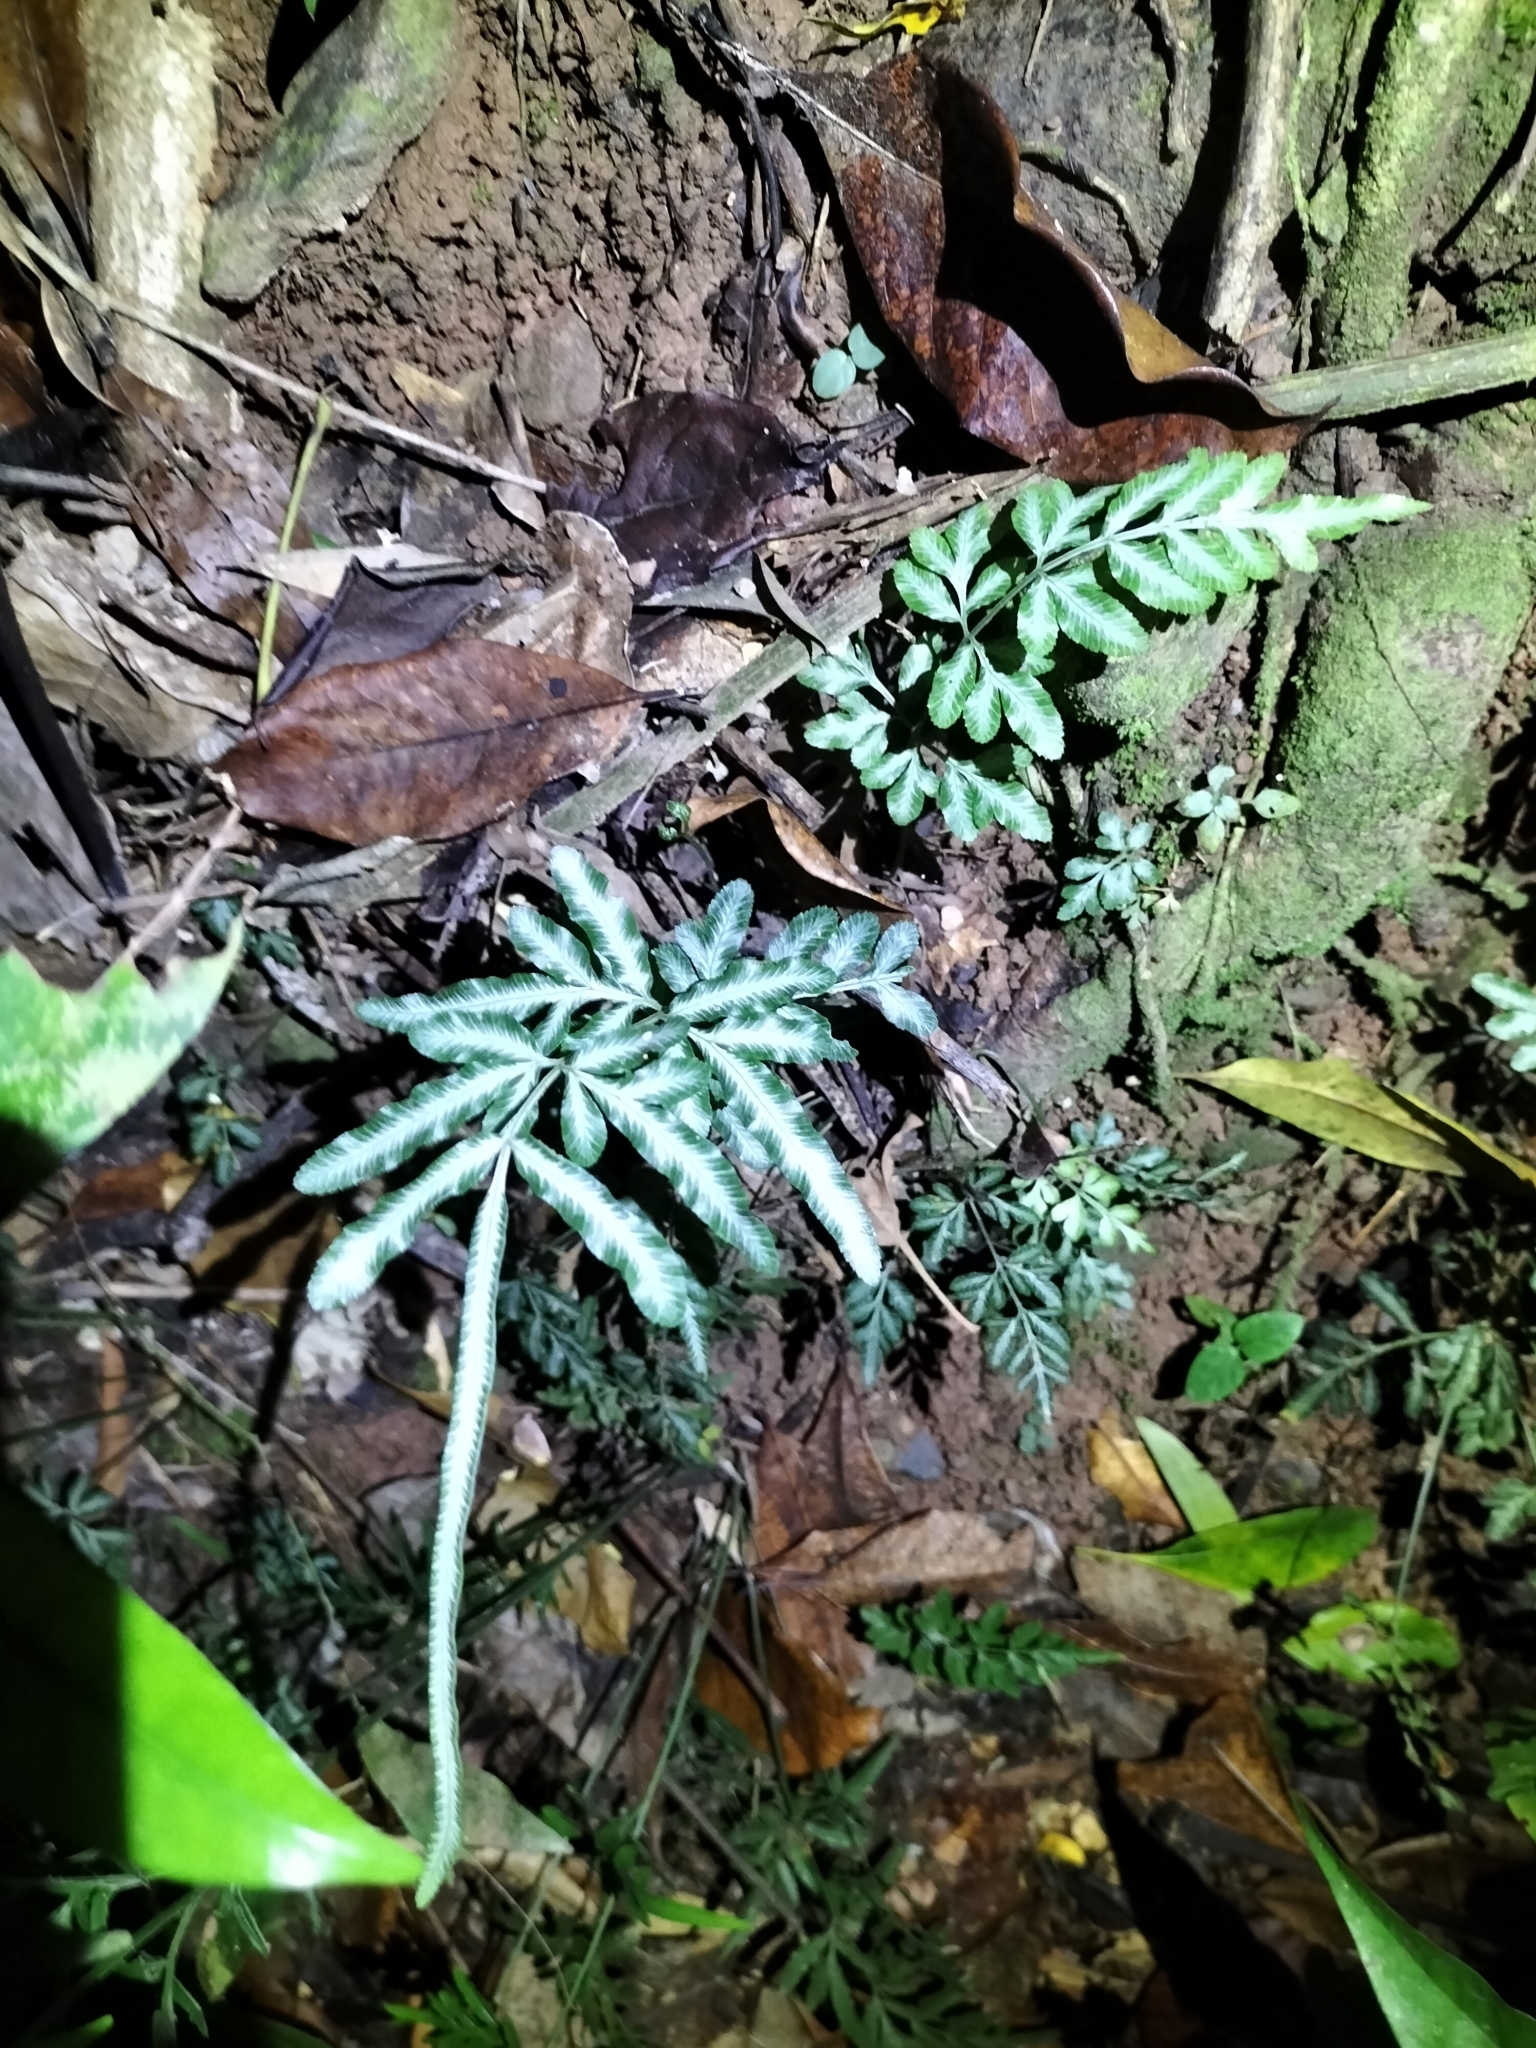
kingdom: Plantae
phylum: Tracheophyta
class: Polypodiopsida
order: Polypodiales
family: Pteridaceae
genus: Pteris
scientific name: Pteris ensiformis
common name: Sword brake
